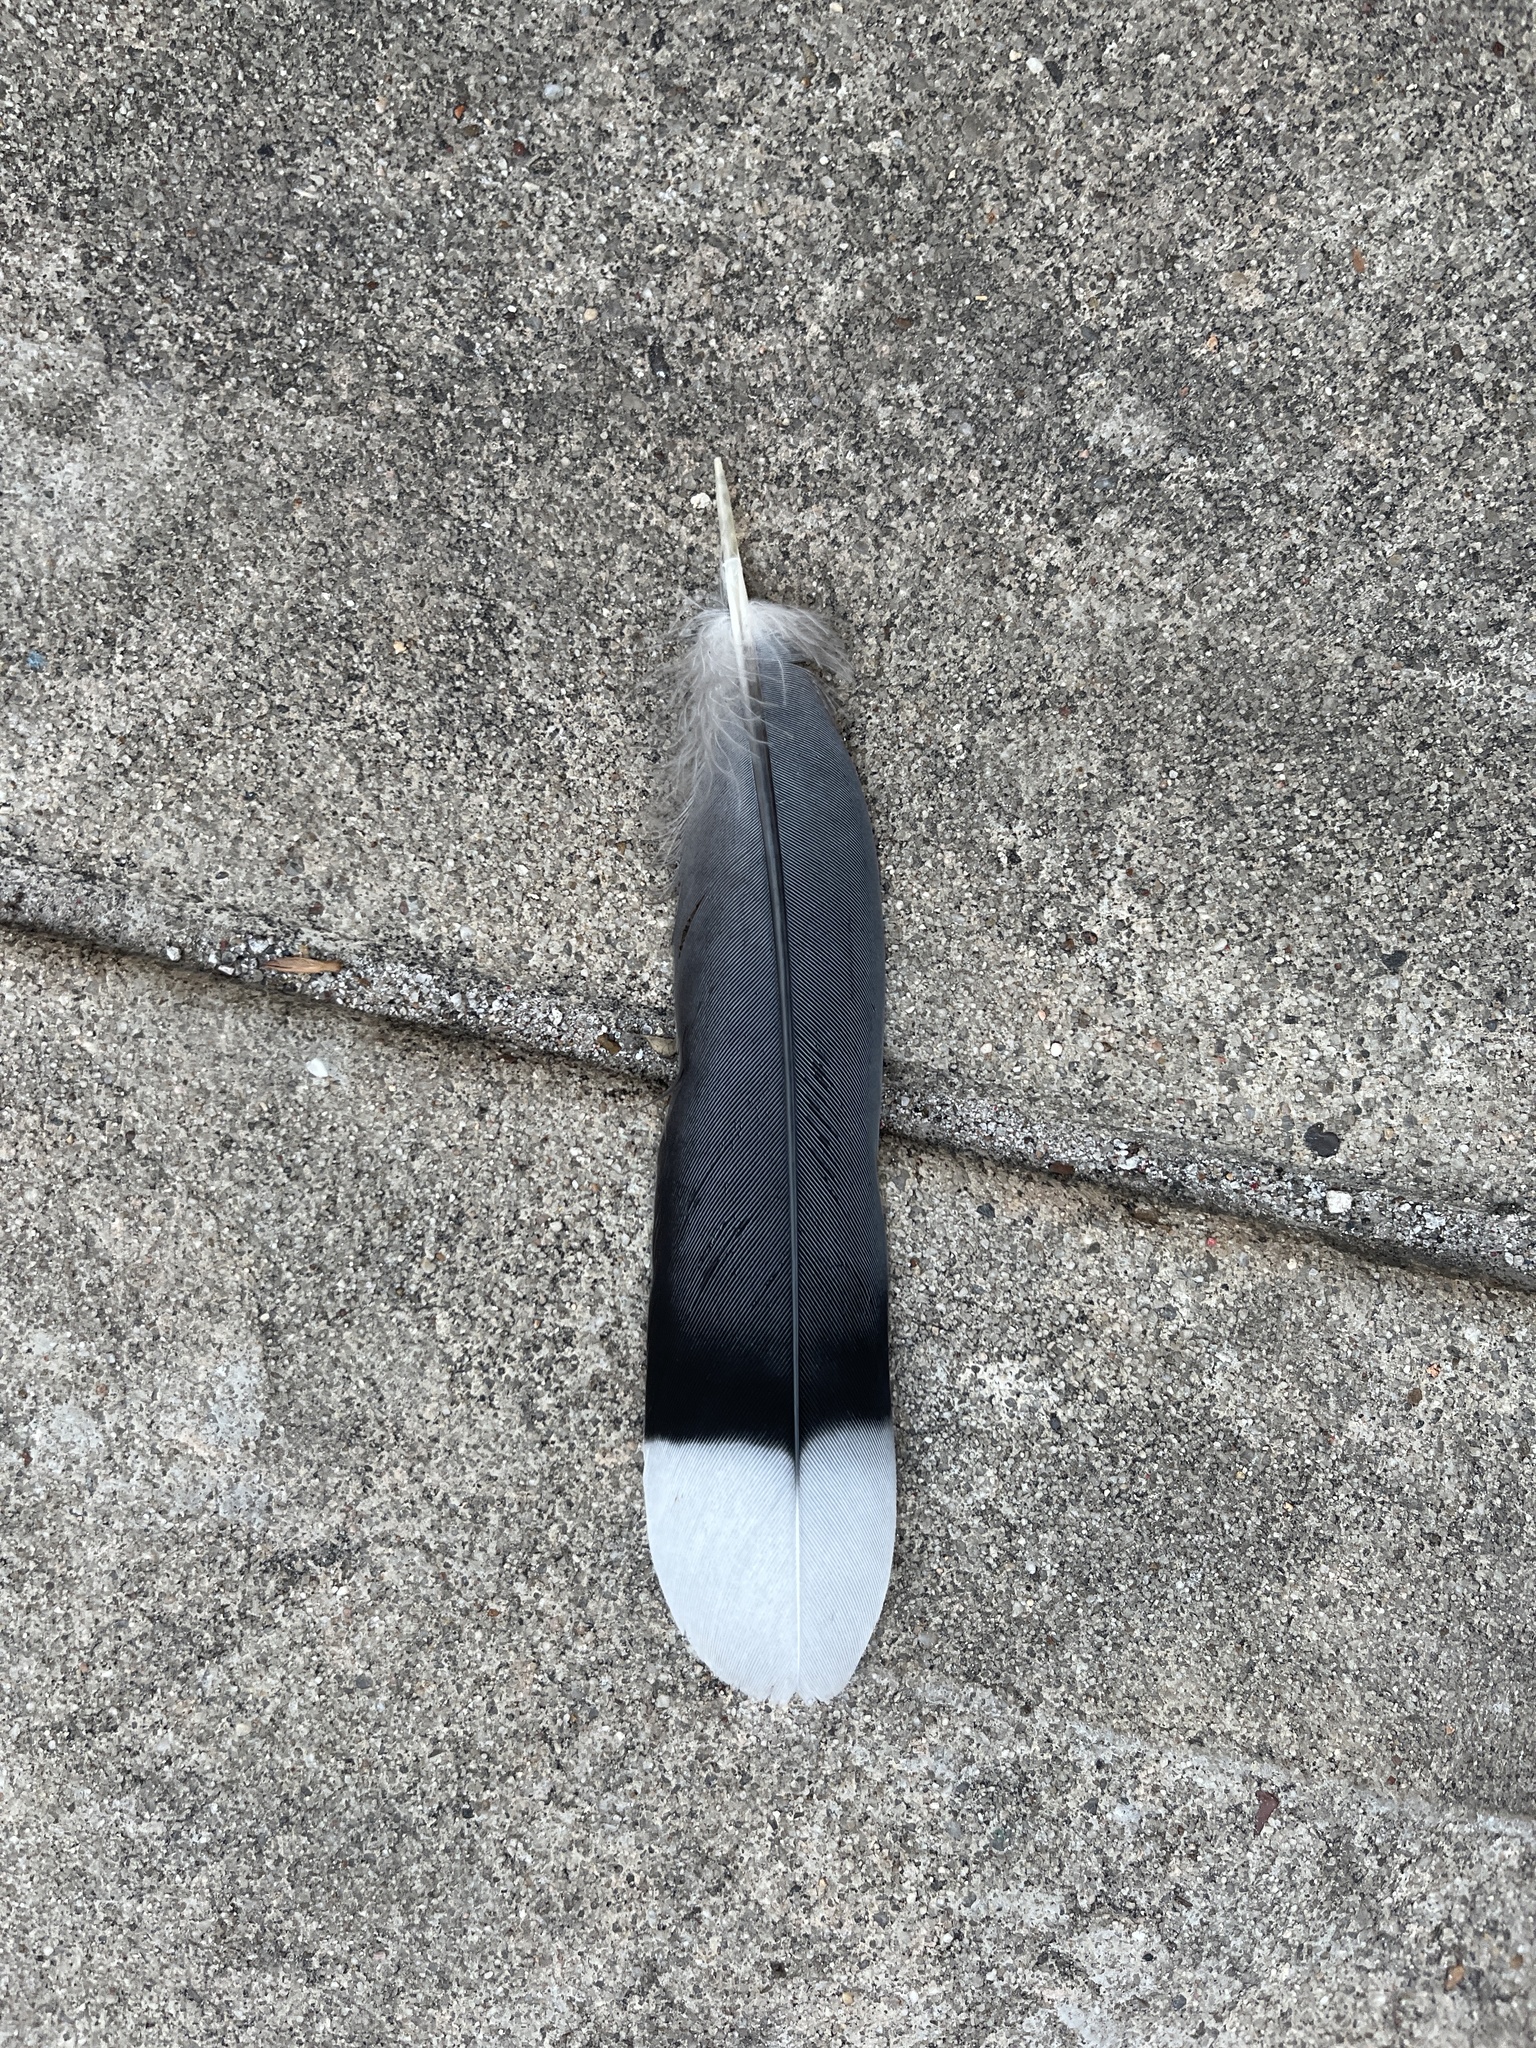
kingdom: Animalia
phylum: Chordata
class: Aves
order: Columbiformes
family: Columbidae
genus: Columba
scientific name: Columba livia
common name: Rock pigeon
